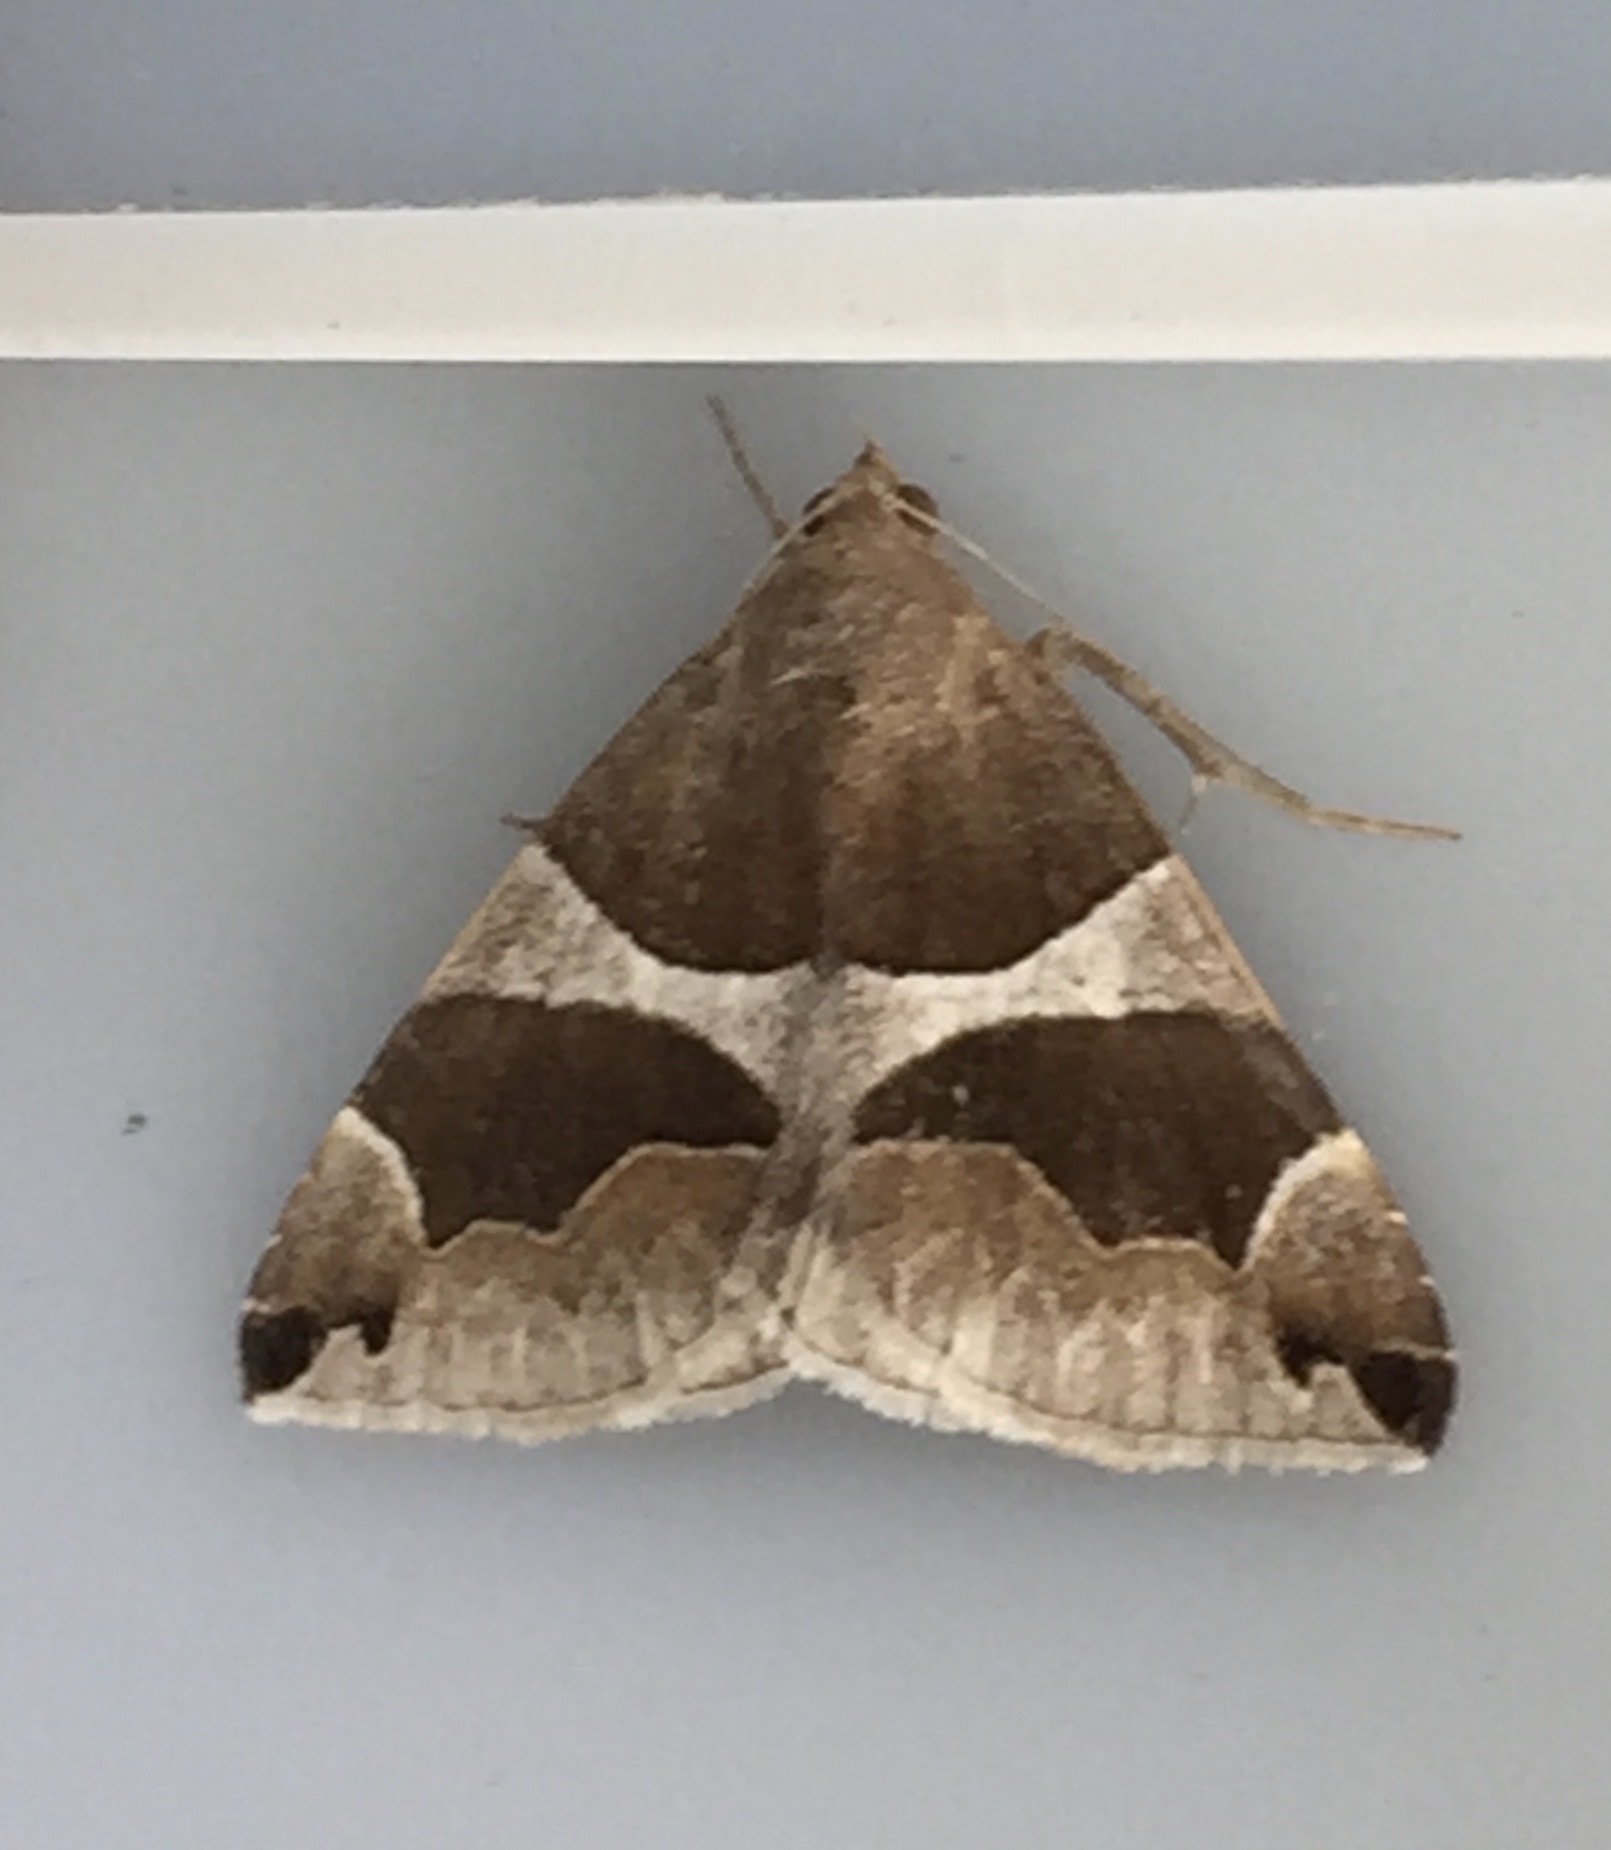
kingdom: Animalia
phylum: Arthropoda
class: Insecta
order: Lepidoptera
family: Erebidae
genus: Dysgonia
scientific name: Dysgonia algira
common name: Passenger
